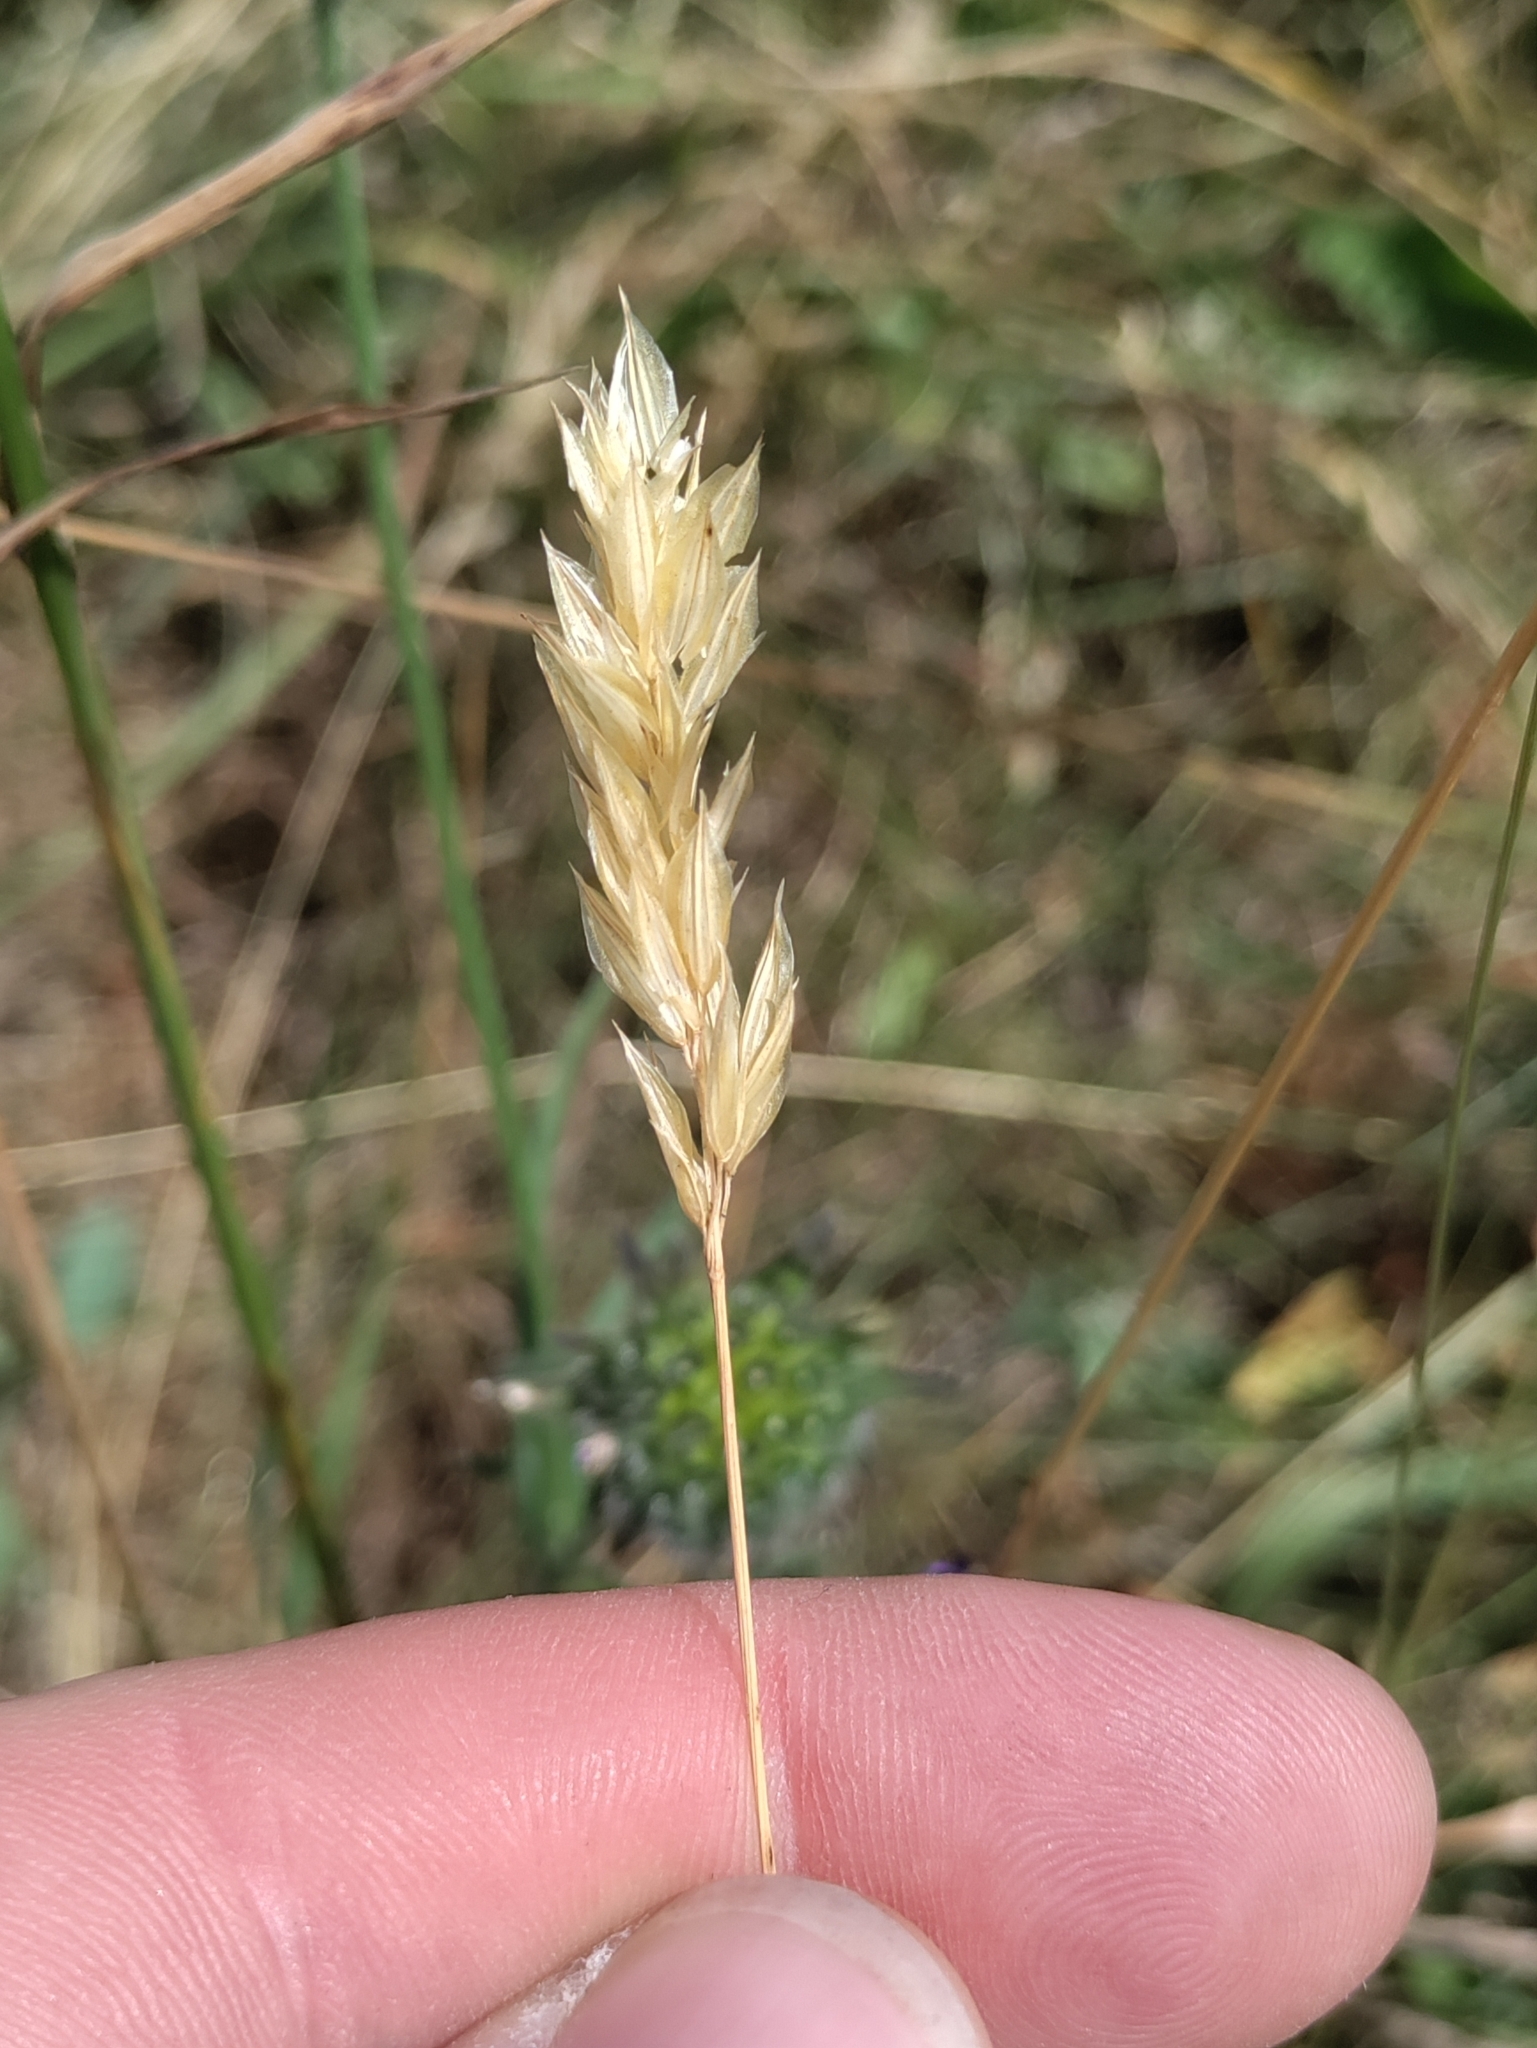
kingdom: Plantae
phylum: Tracheophyta
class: Liliopsida
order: Poales
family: Poaceae
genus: Anthoxanthum
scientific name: Anthoxanthum odoratum
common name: Sweet vernalgrass
